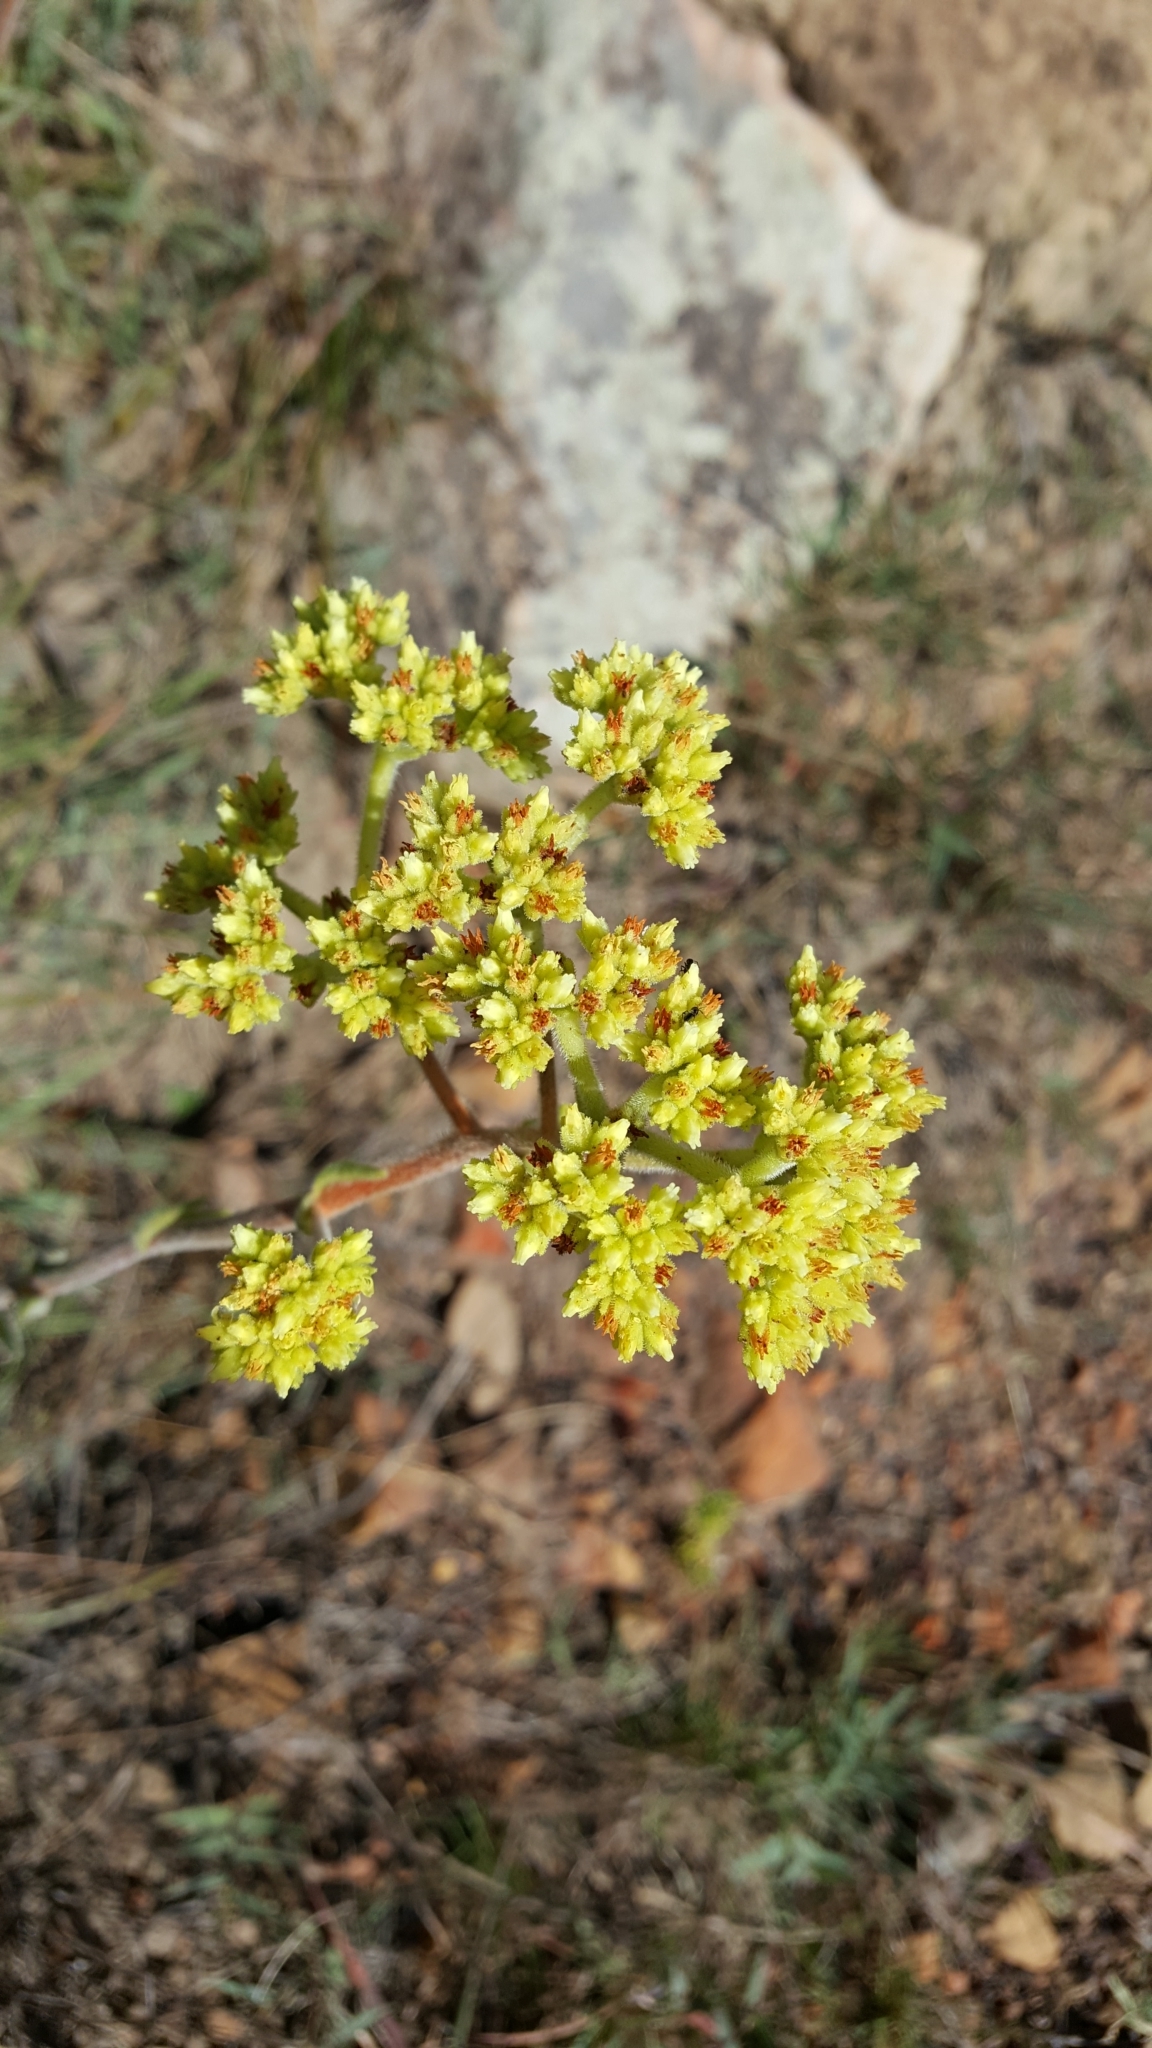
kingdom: Plantae
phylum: Tracheophyta
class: Magnoliopsida
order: Saxifragales
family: Crassulaceae
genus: Crassula
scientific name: Crassula mesembryanthoides
